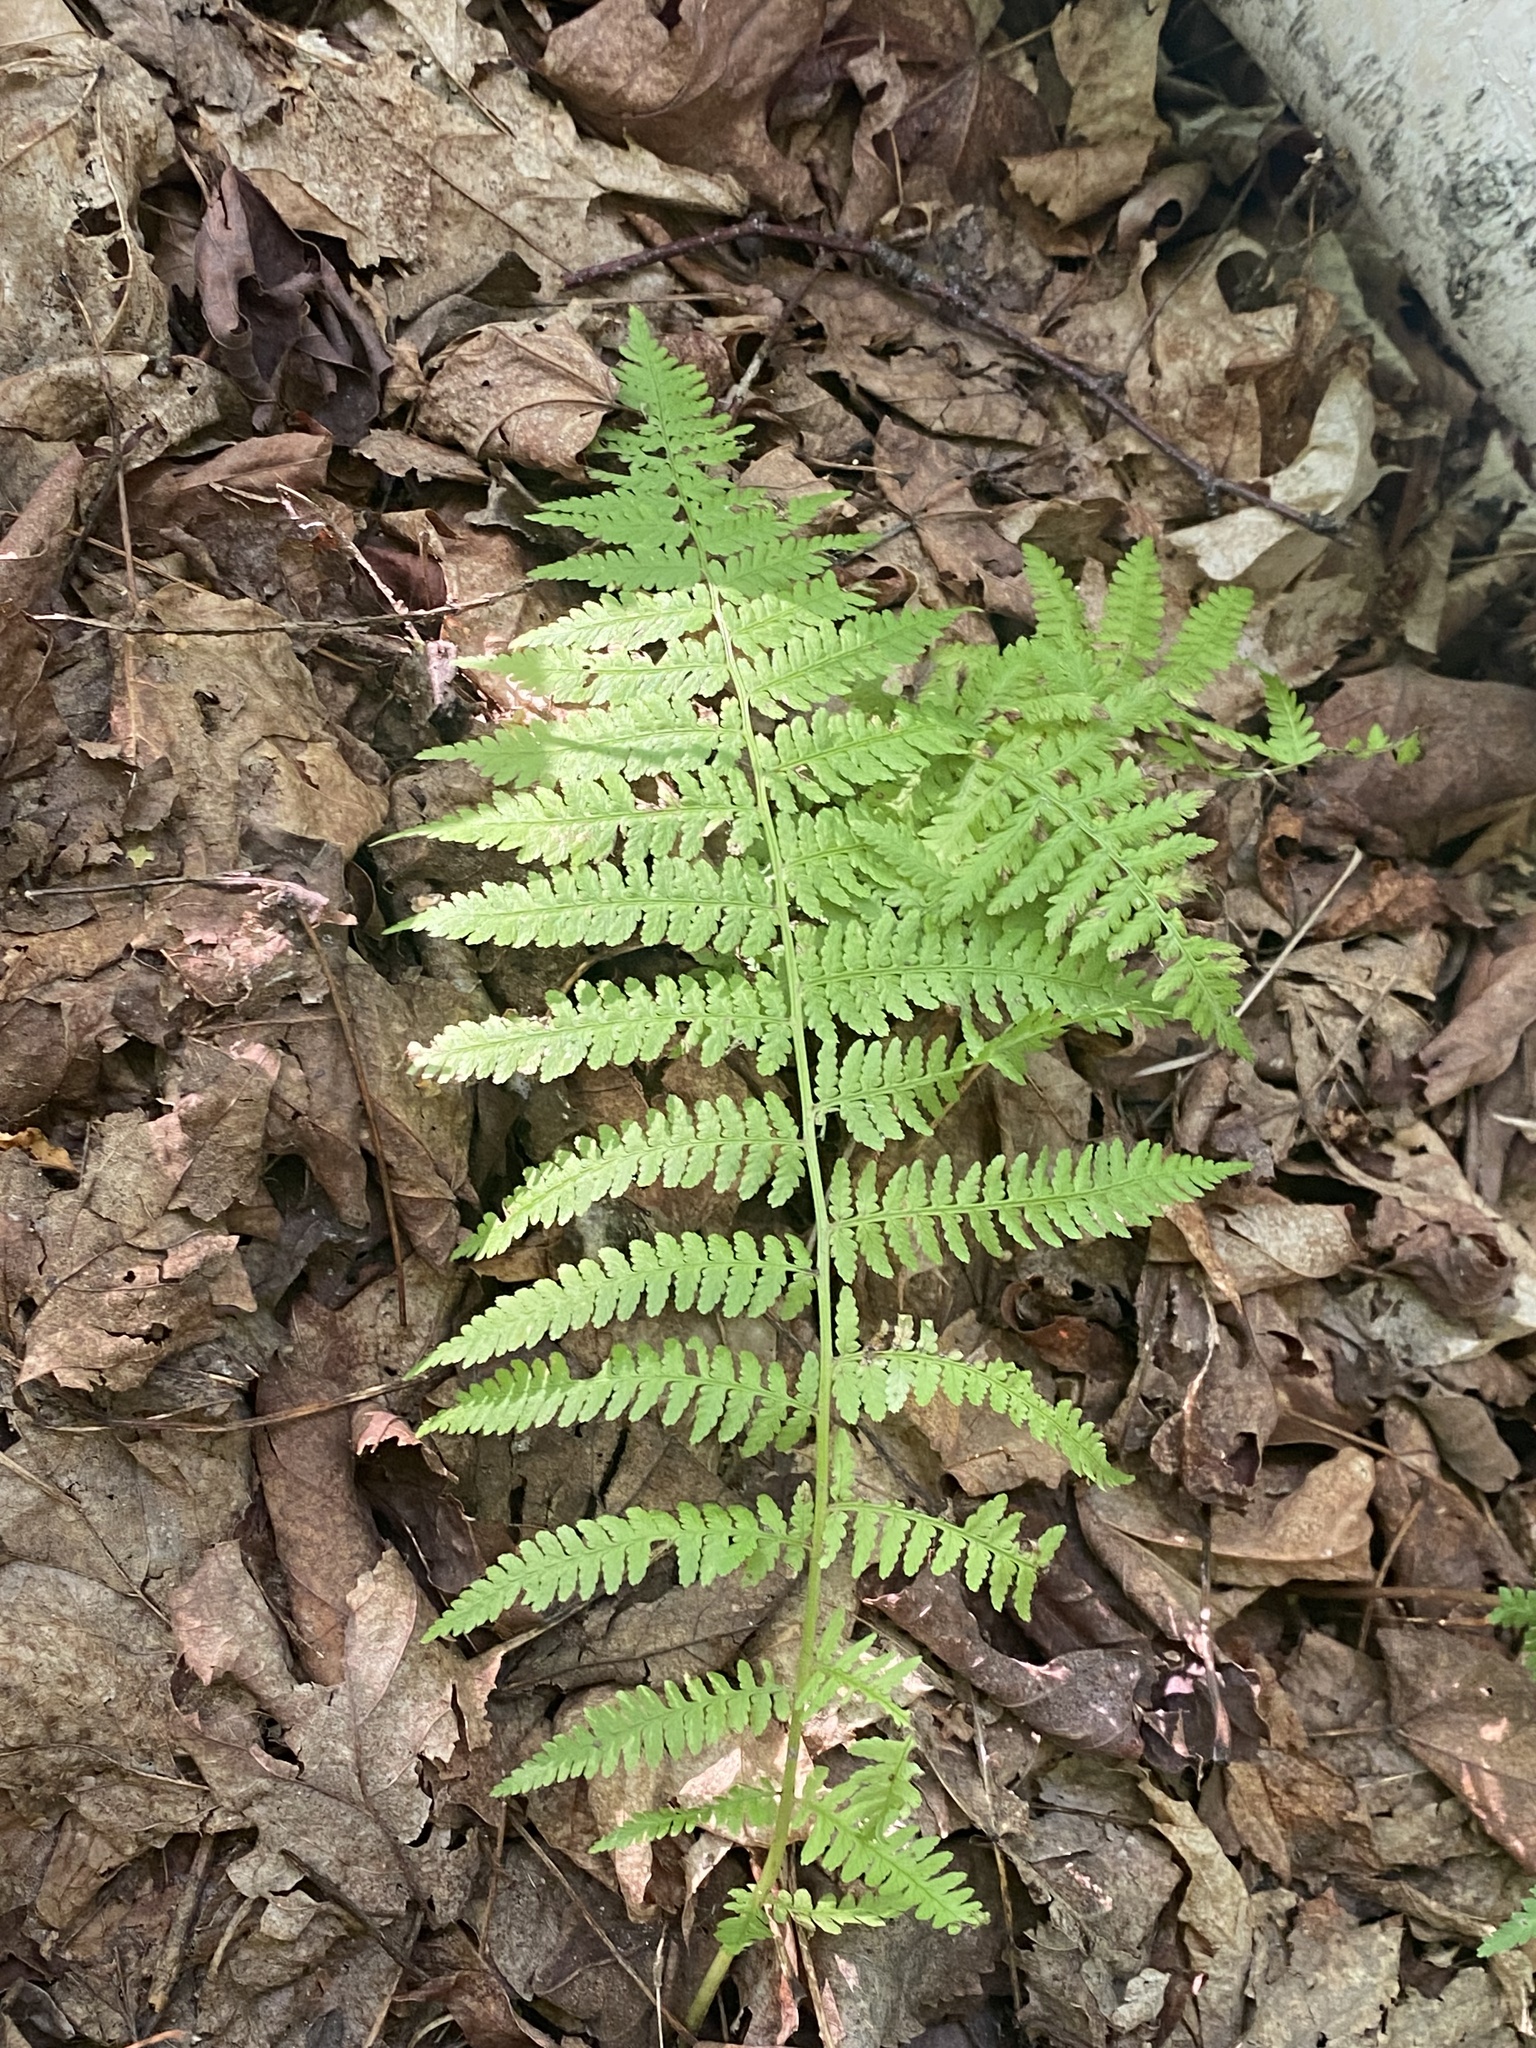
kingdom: Plantae
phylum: Tracheophyta
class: Polypodiopsida
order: Polypodiales
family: Athyriaceae
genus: Athyrium
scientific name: Athyrium angustum
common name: Northern lady fern
